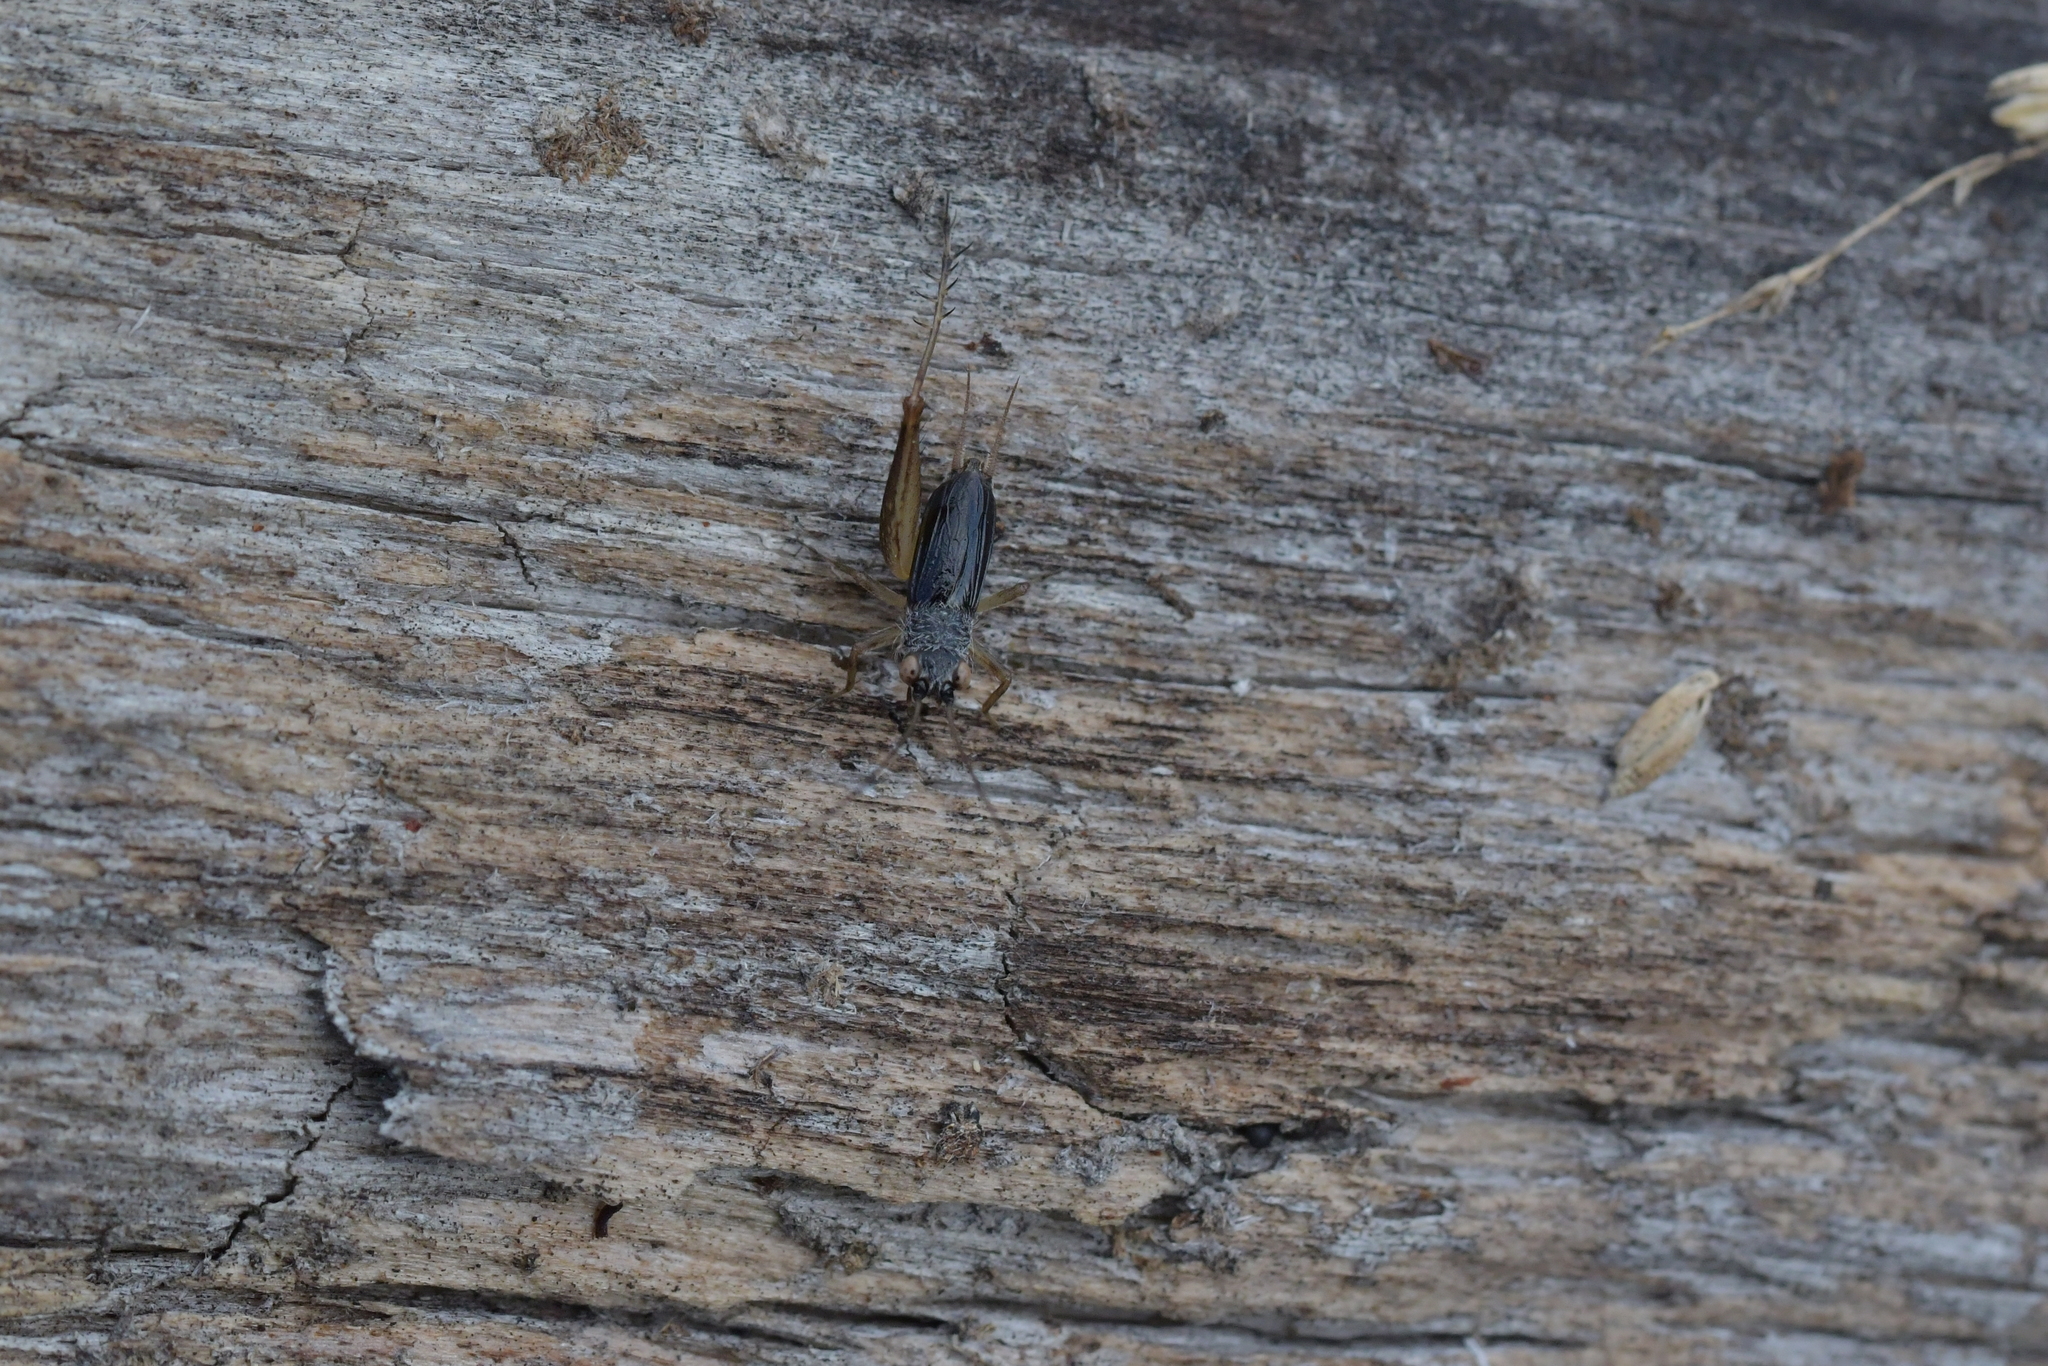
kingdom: Animalia
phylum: Arthropoda
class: Insecta
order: Orthoptera
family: Trigonidiidae
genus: Metioche
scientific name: Metioche maorica
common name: New zealand trig
